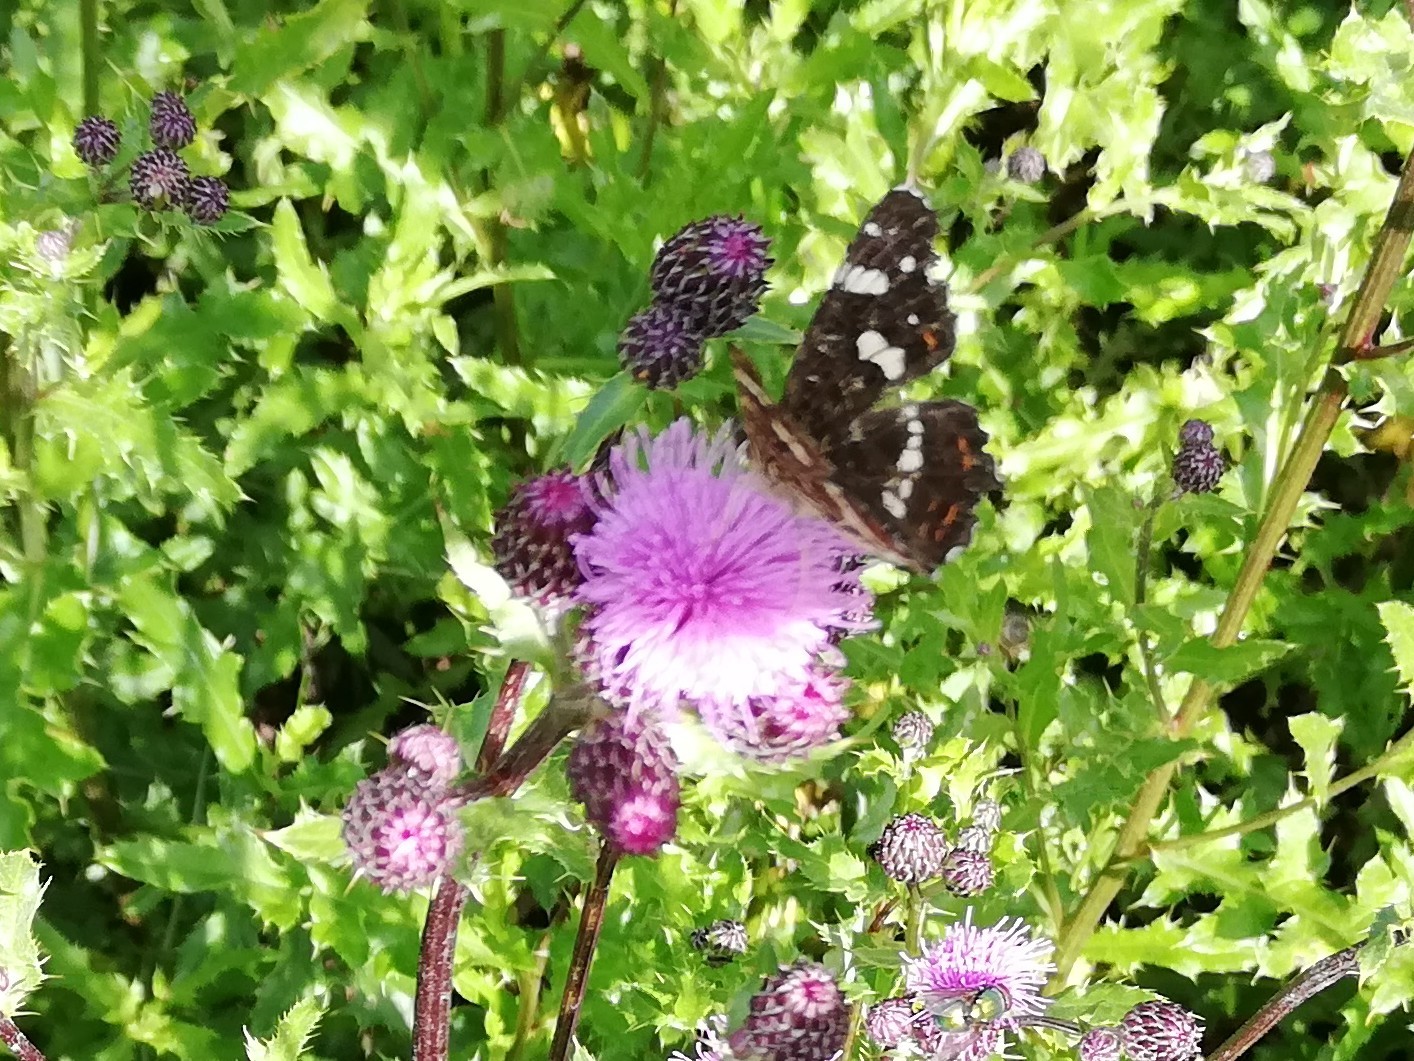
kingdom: Animalia
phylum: Arthropoda
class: Insecta
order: Lepidoptera
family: Nymphalidae
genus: Araschnia
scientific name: Araschnia levana
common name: Map butterfly
